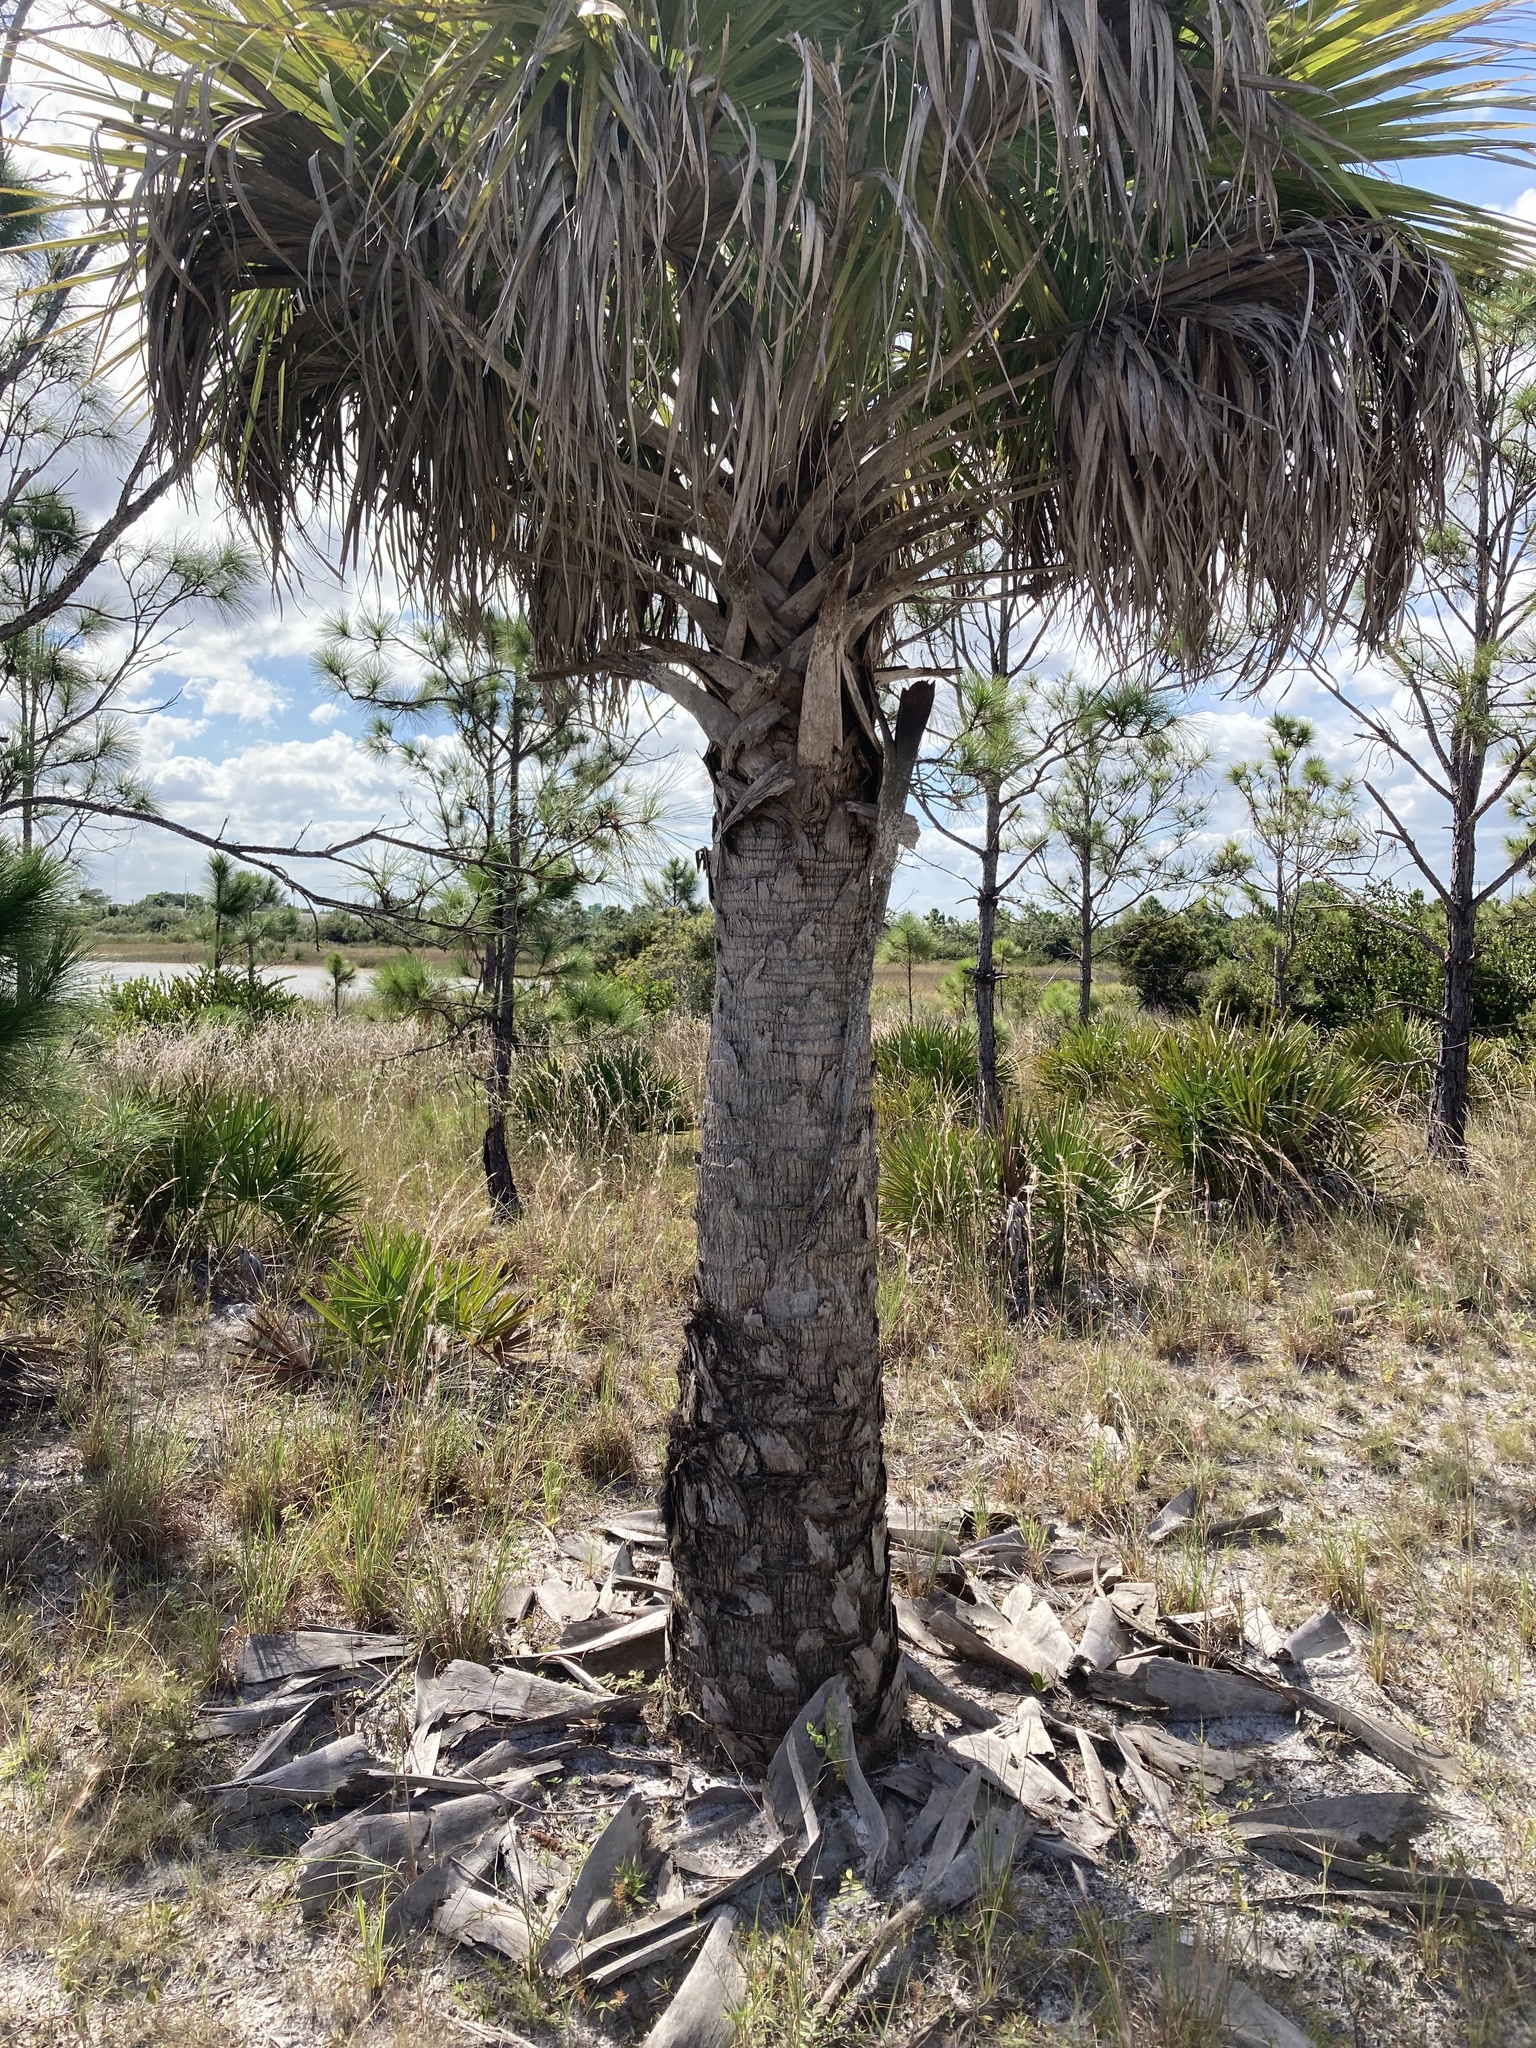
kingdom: Plantae
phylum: Tracheophyta
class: Liliopsida
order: Arecales
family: Arecaceae
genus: Sabal
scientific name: Sabal palmetto
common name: Blue palmetto
